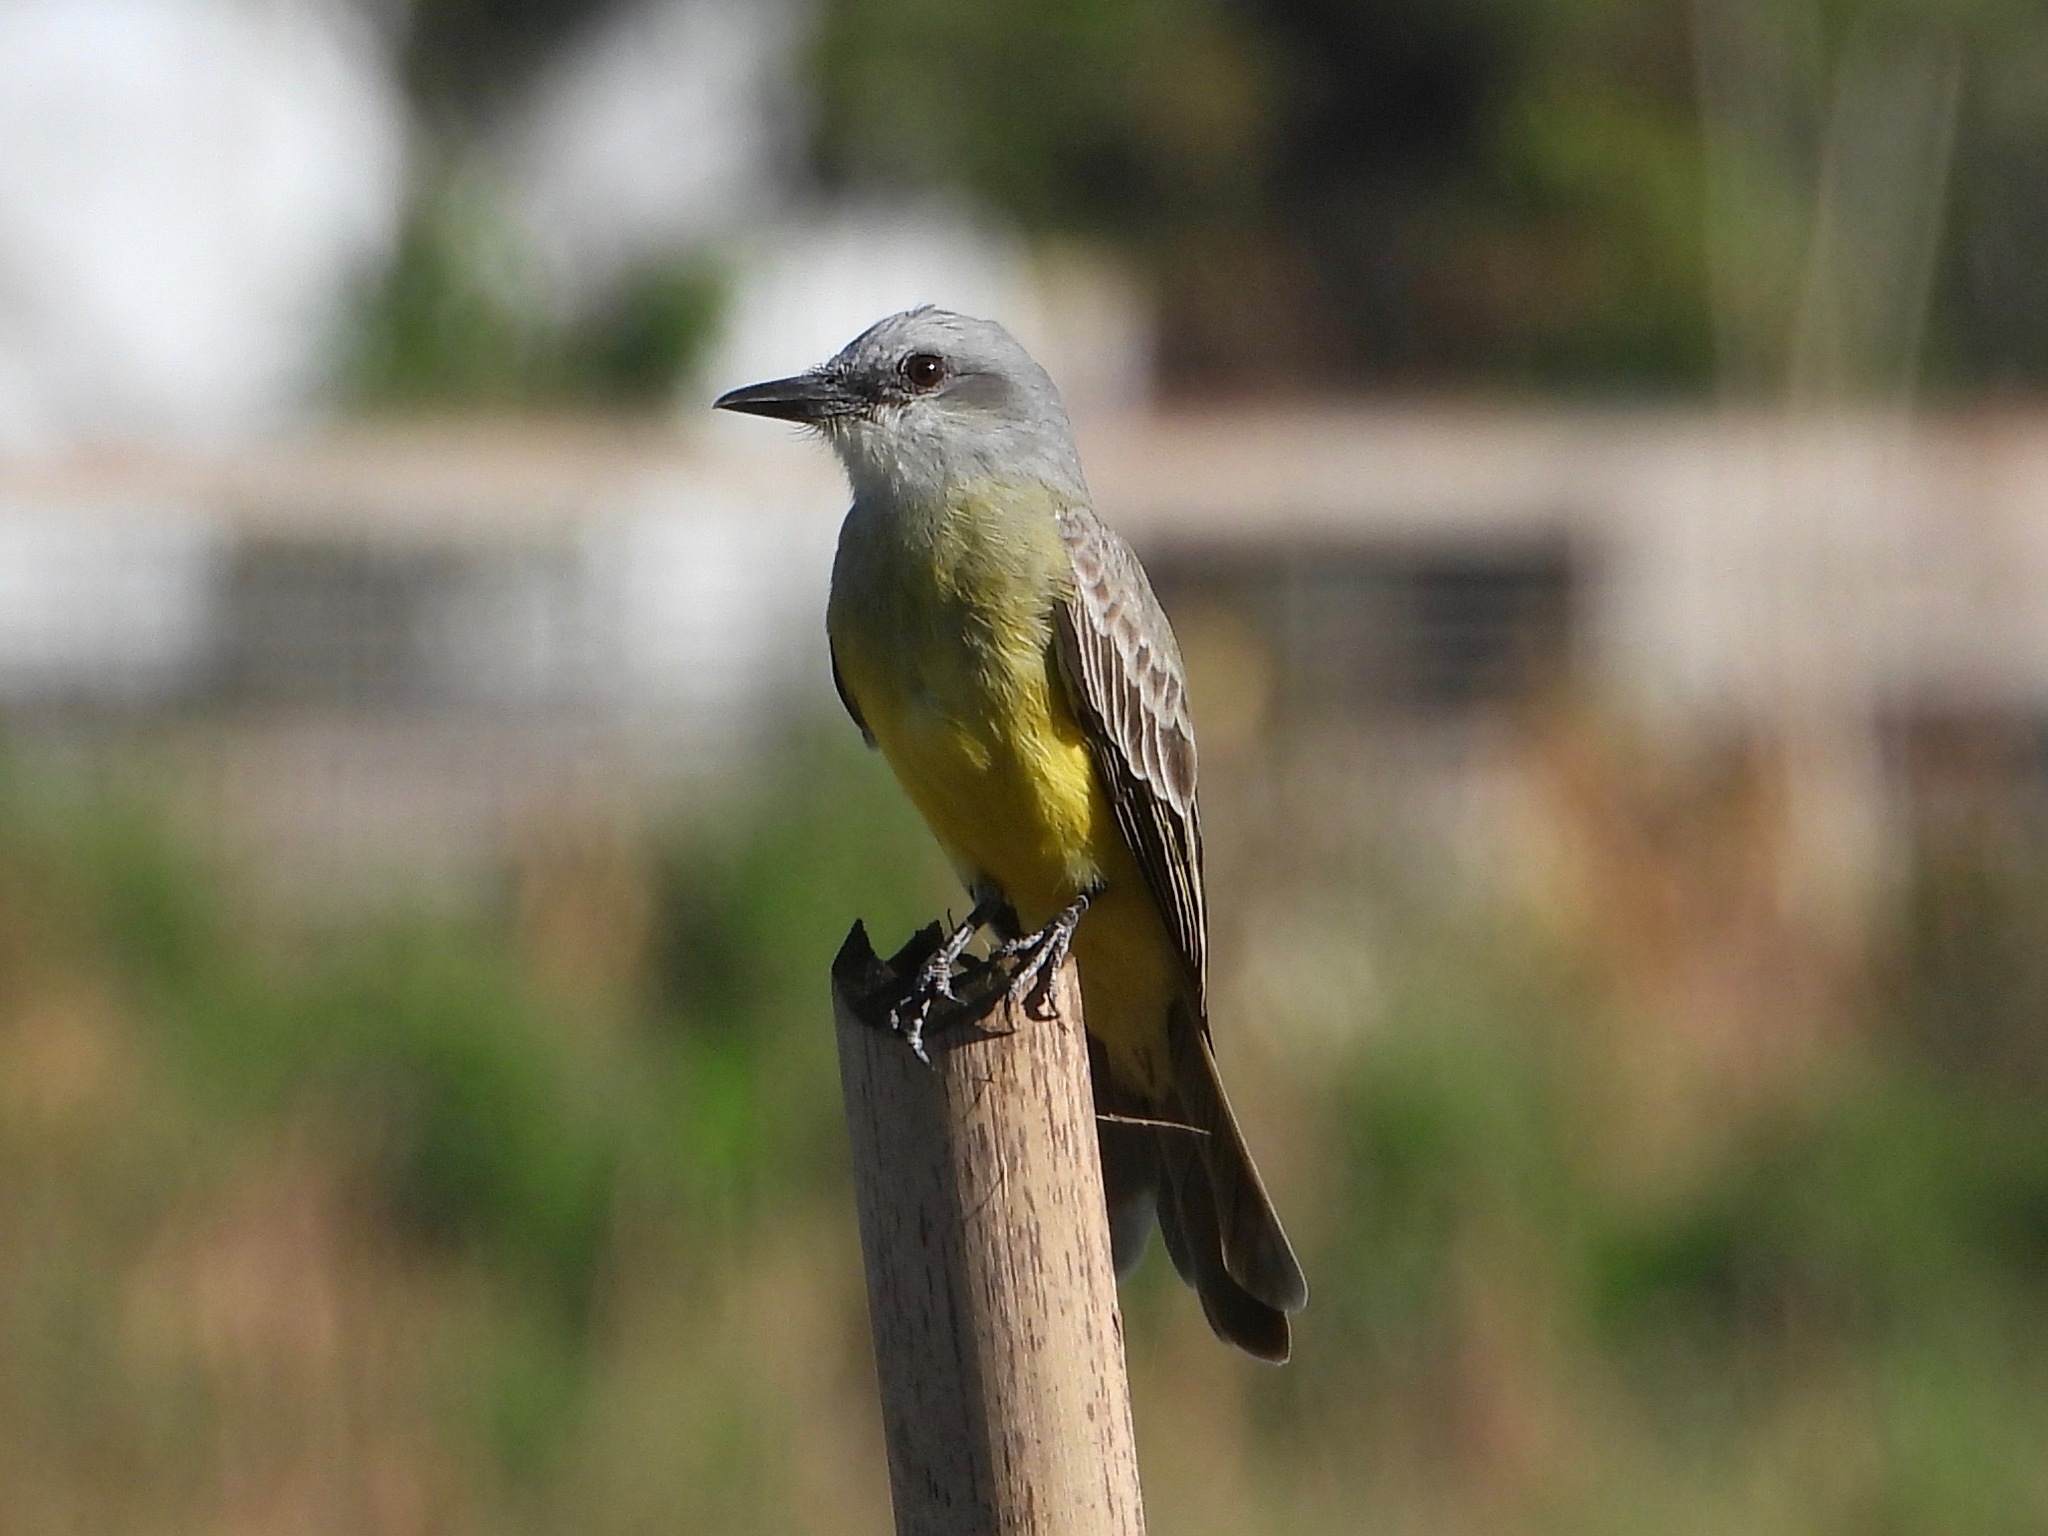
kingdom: Animalia
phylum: Chordata
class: Aves
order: Passeriformes
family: Tyrannidae
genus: Tyrannus
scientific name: Tyrannus melancholicus
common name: Tropical kingbird
